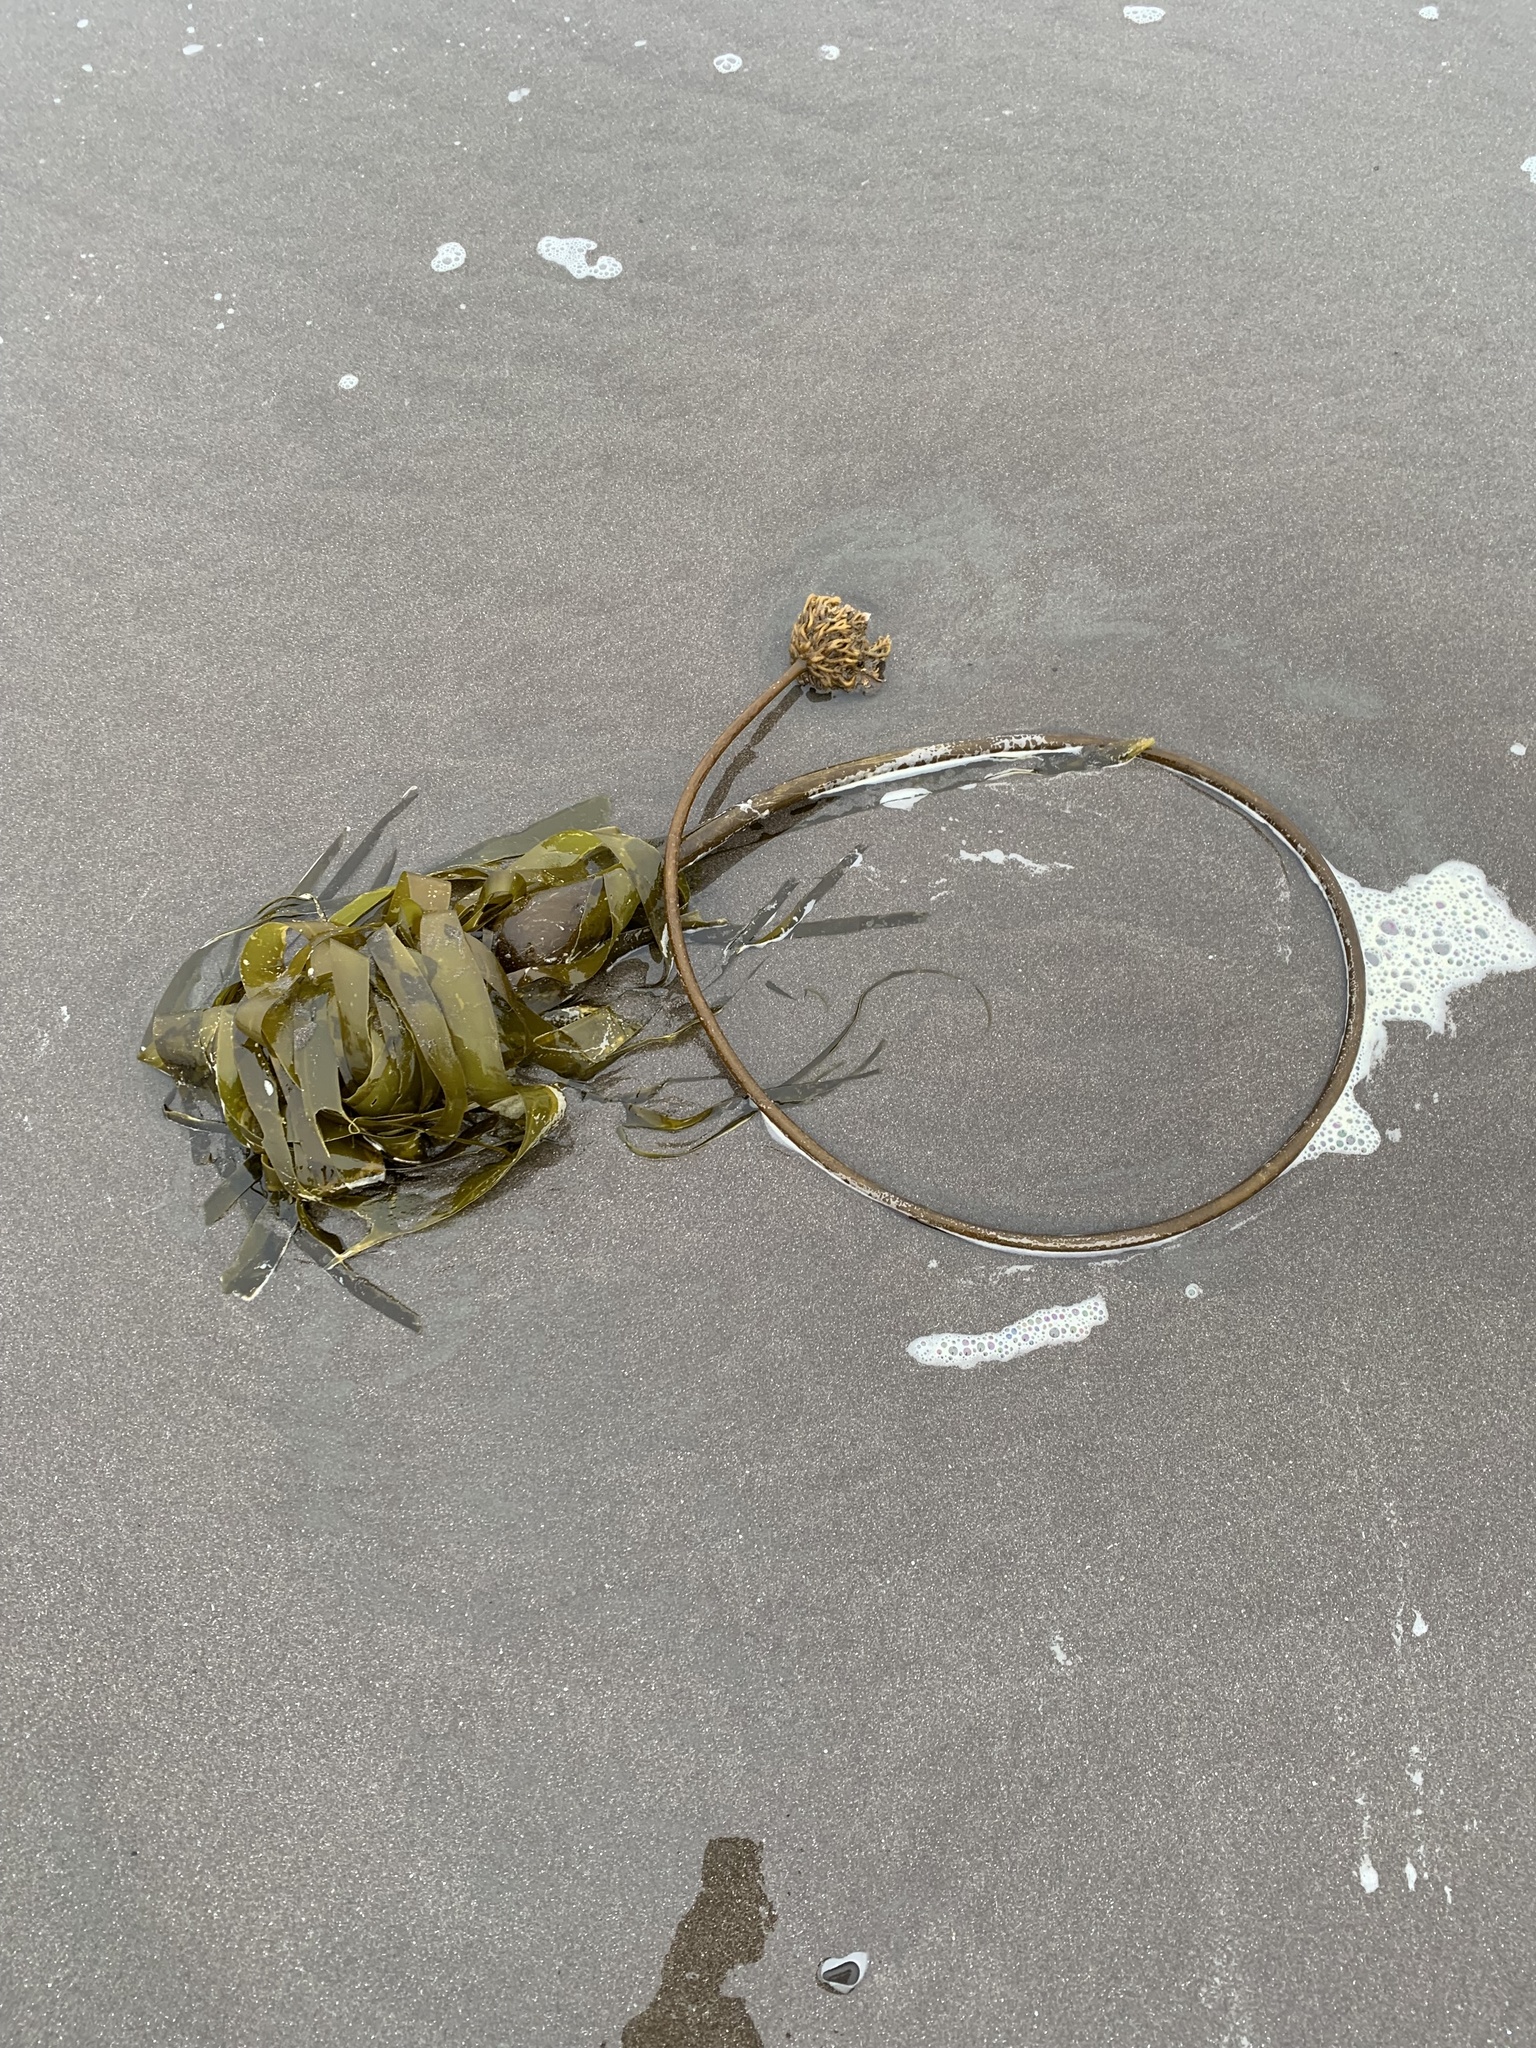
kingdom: Chromista
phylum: Ochrophyta
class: Phaeophyceae
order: Laminariales
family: Laminariaceae
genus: Nereocystis
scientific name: Nereocystis luetkeana
